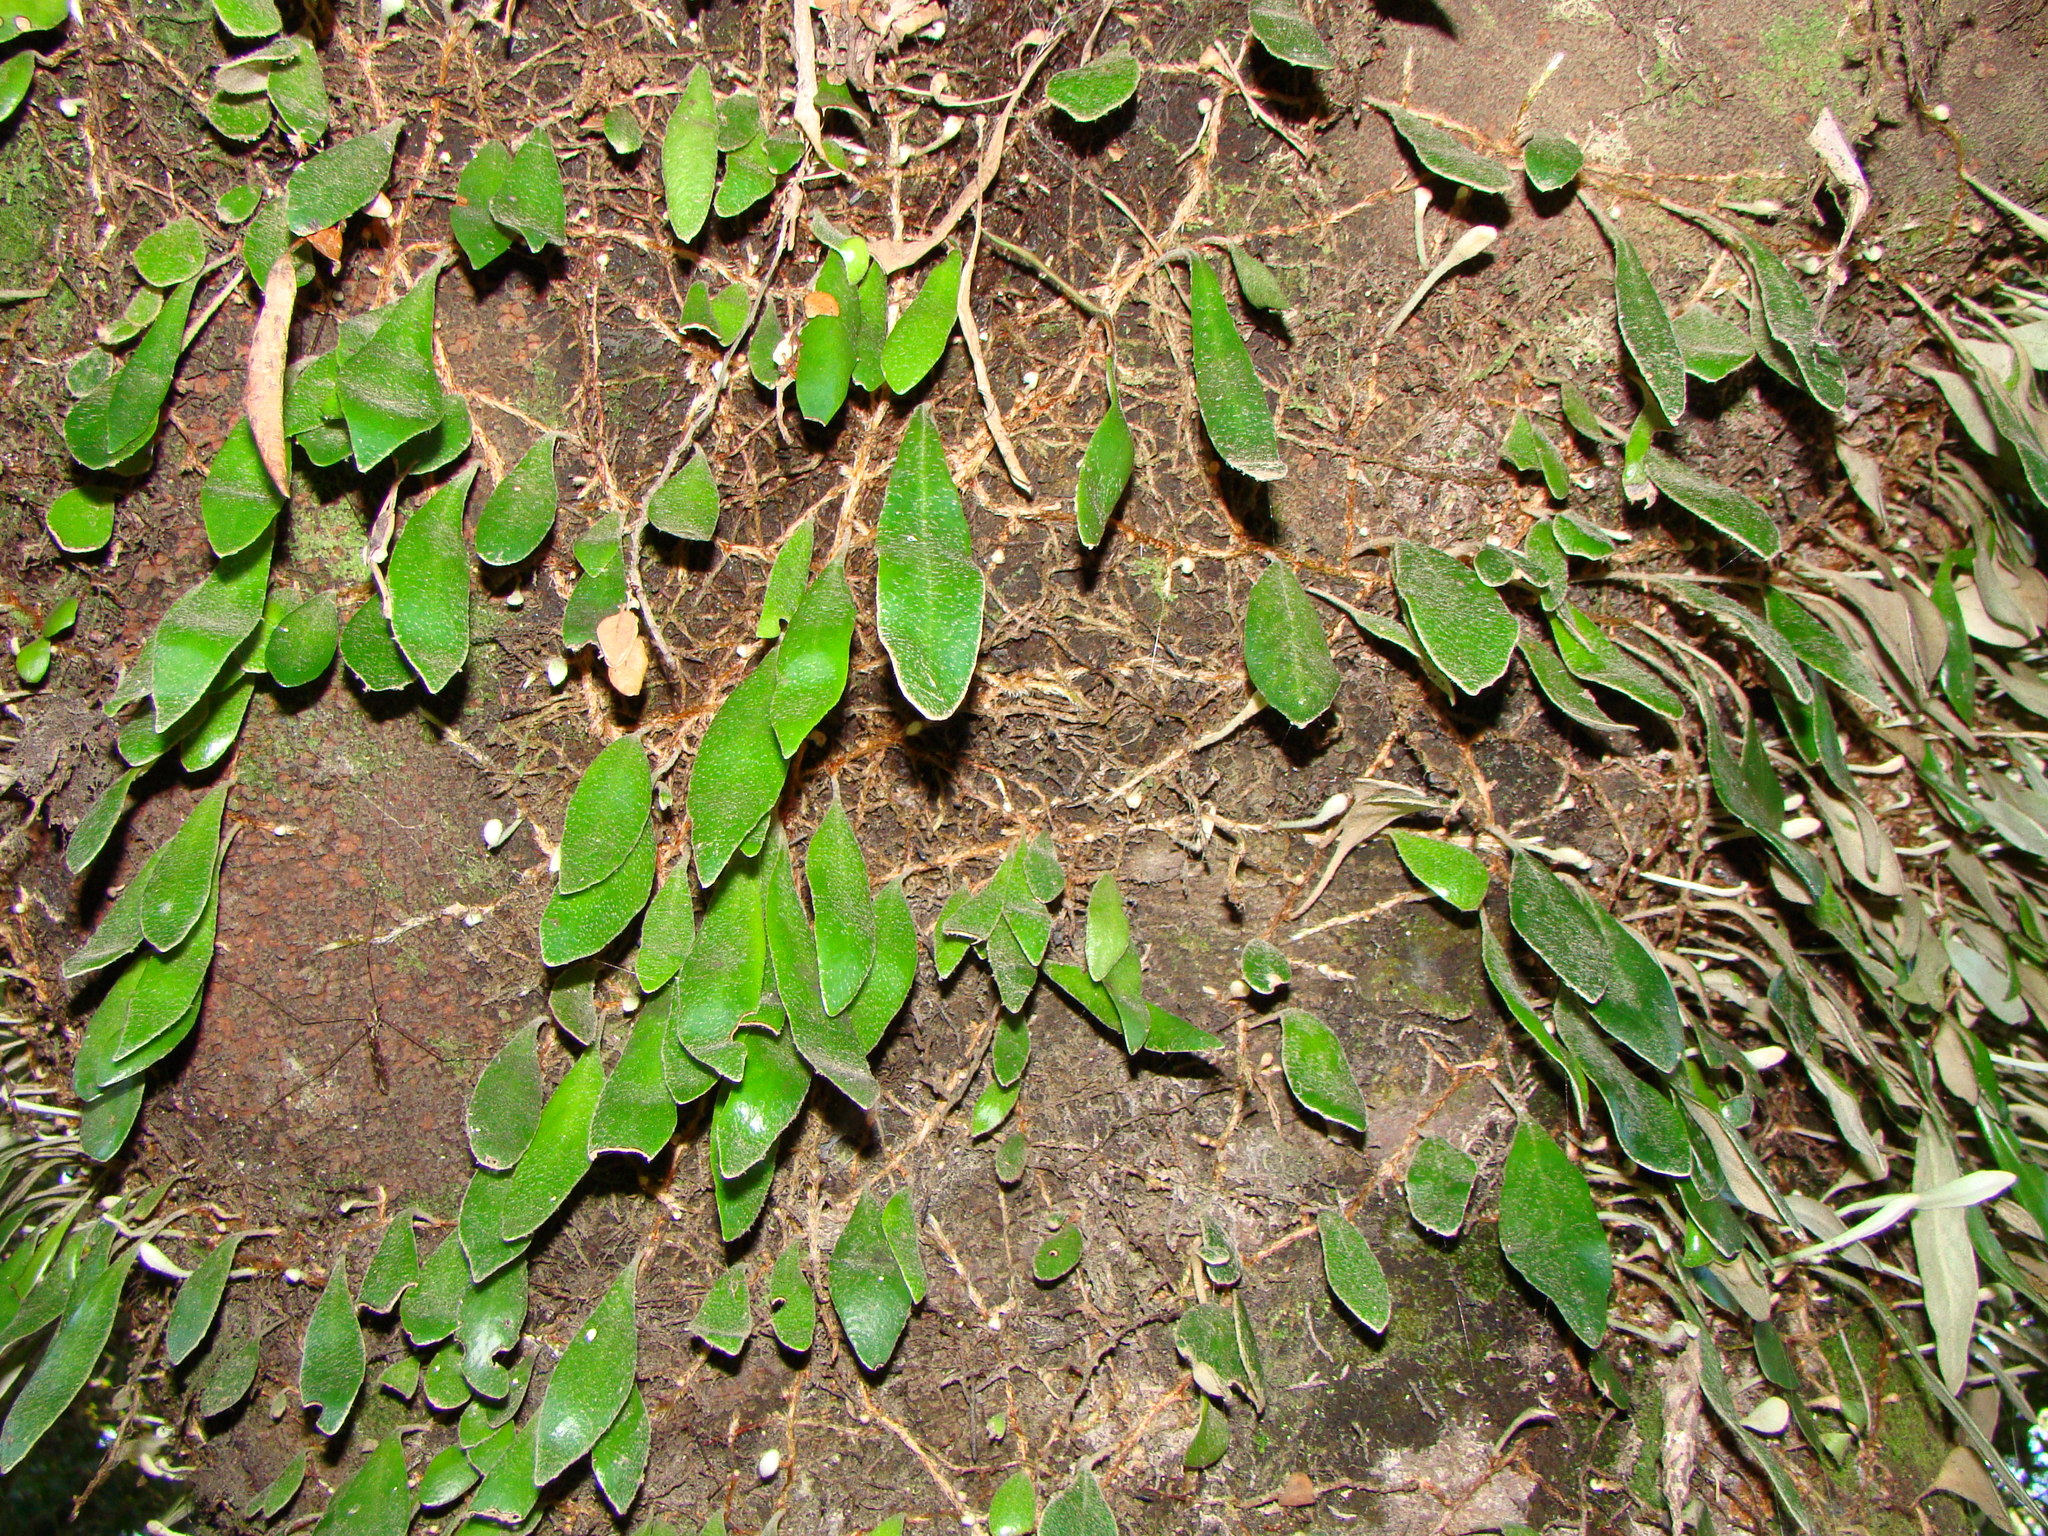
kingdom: Plantae
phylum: Tracheophyta
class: Polypodiopsida
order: Polypodiales
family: Polypodiaceae
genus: Pyrrosia
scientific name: Pyrrosia eleagnifolia
